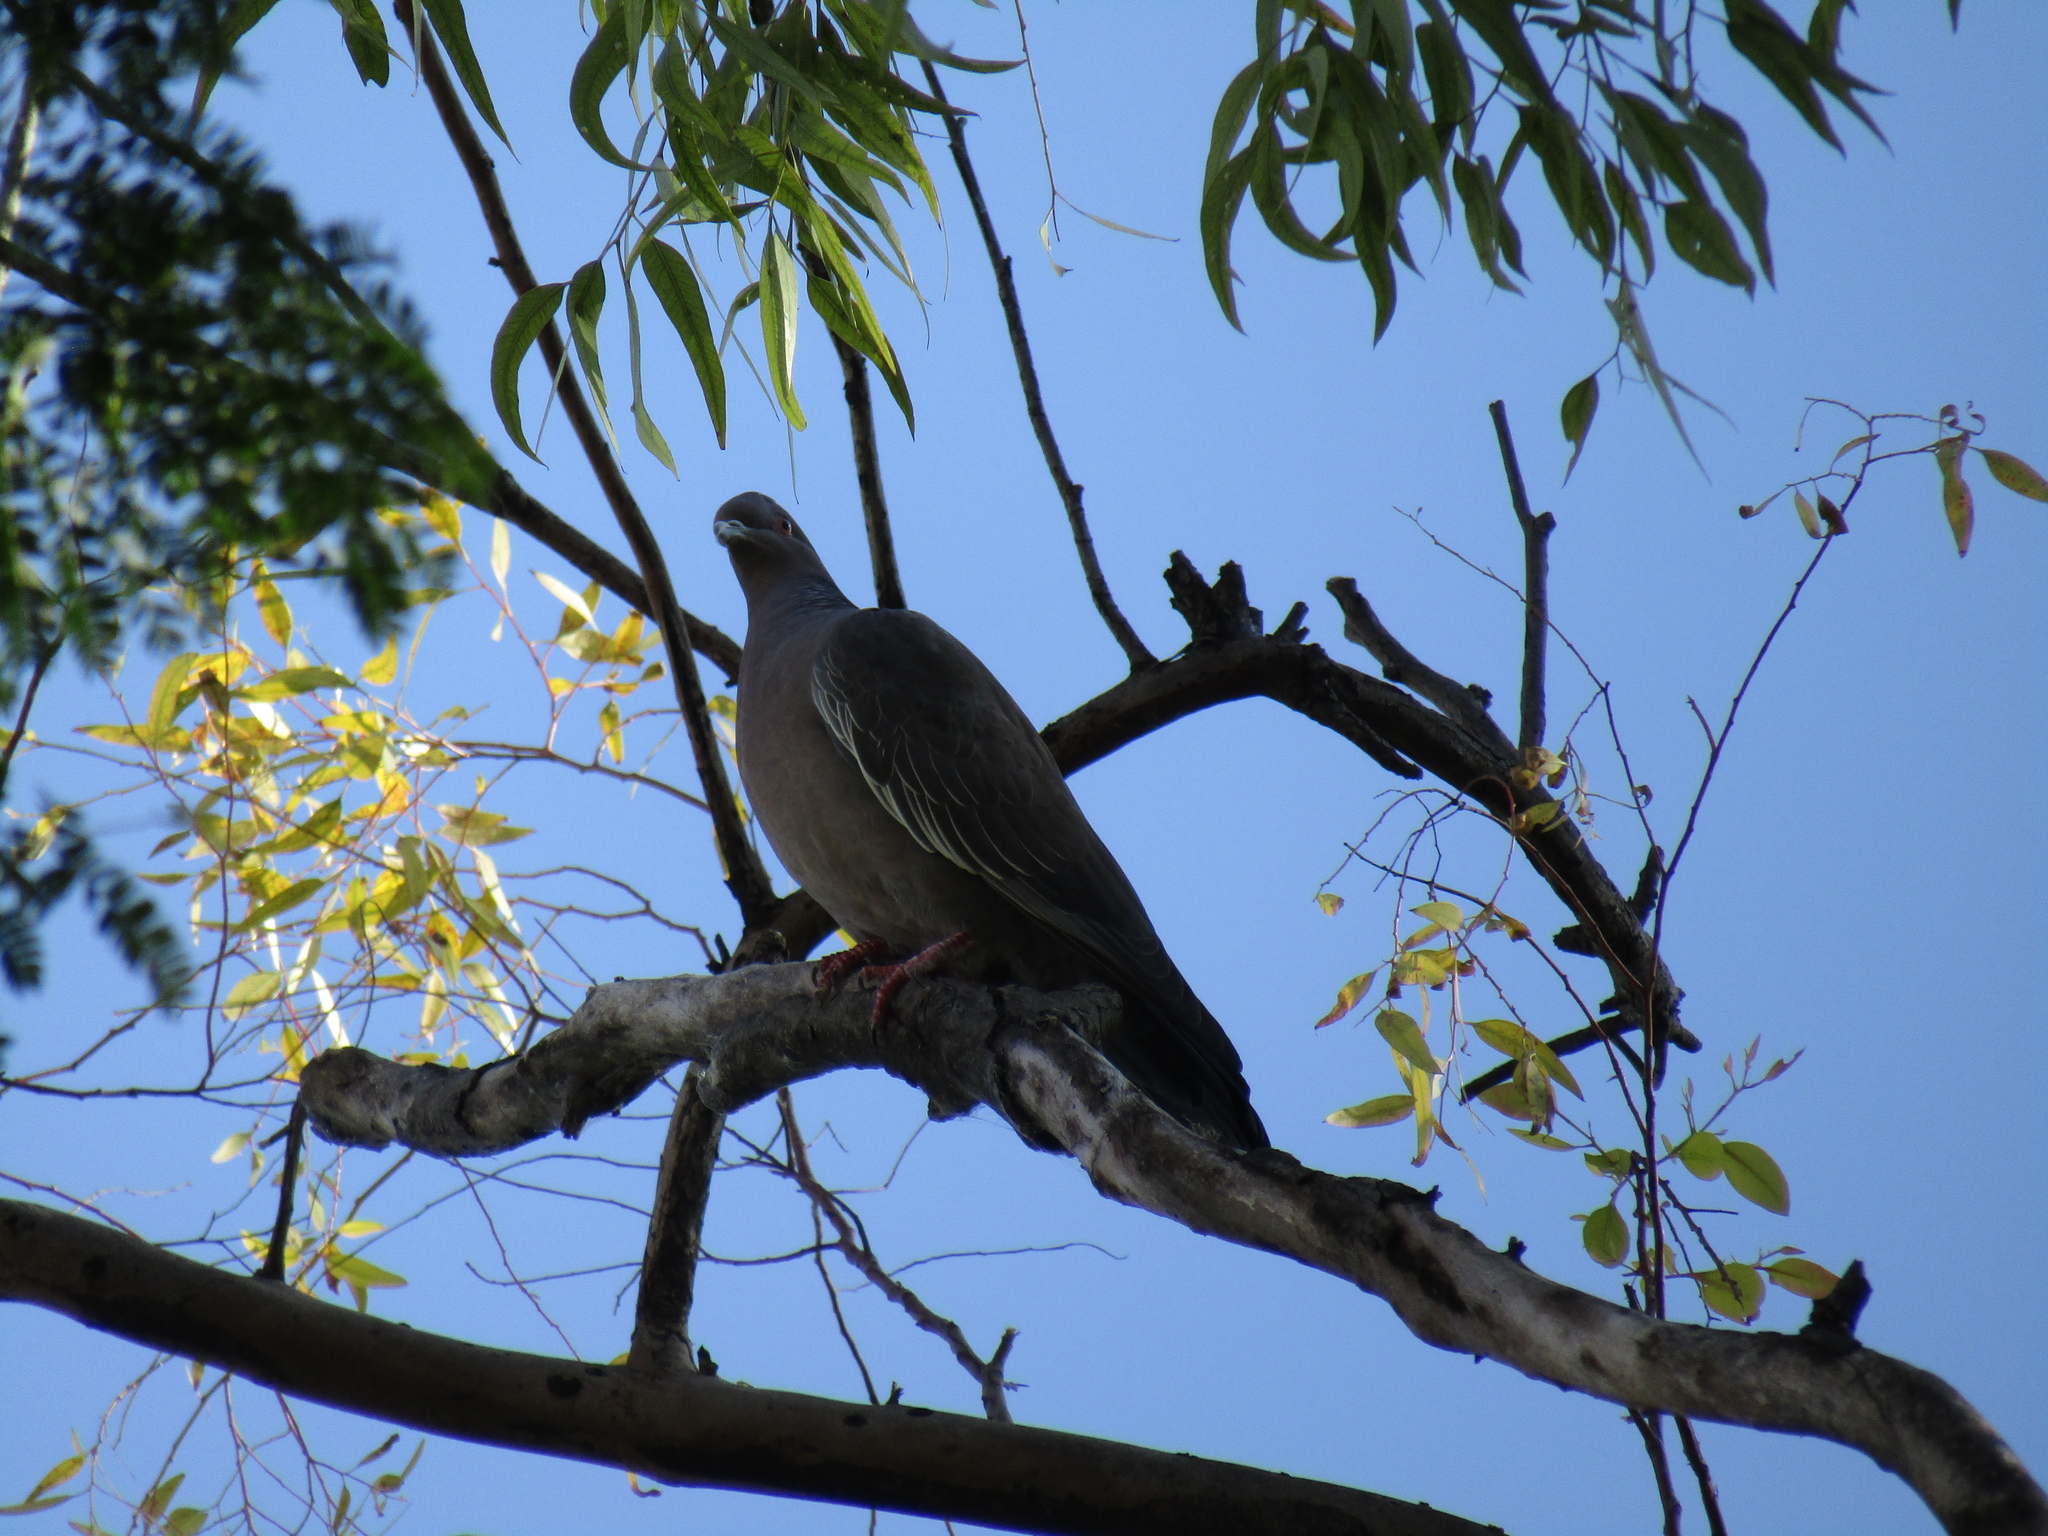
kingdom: Animalia
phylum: Chordata
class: Aves
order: Columbiformes
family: Columbidae
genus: Patagioenas
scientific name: Patagioenas picazuro
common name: Picazuro pigeon
